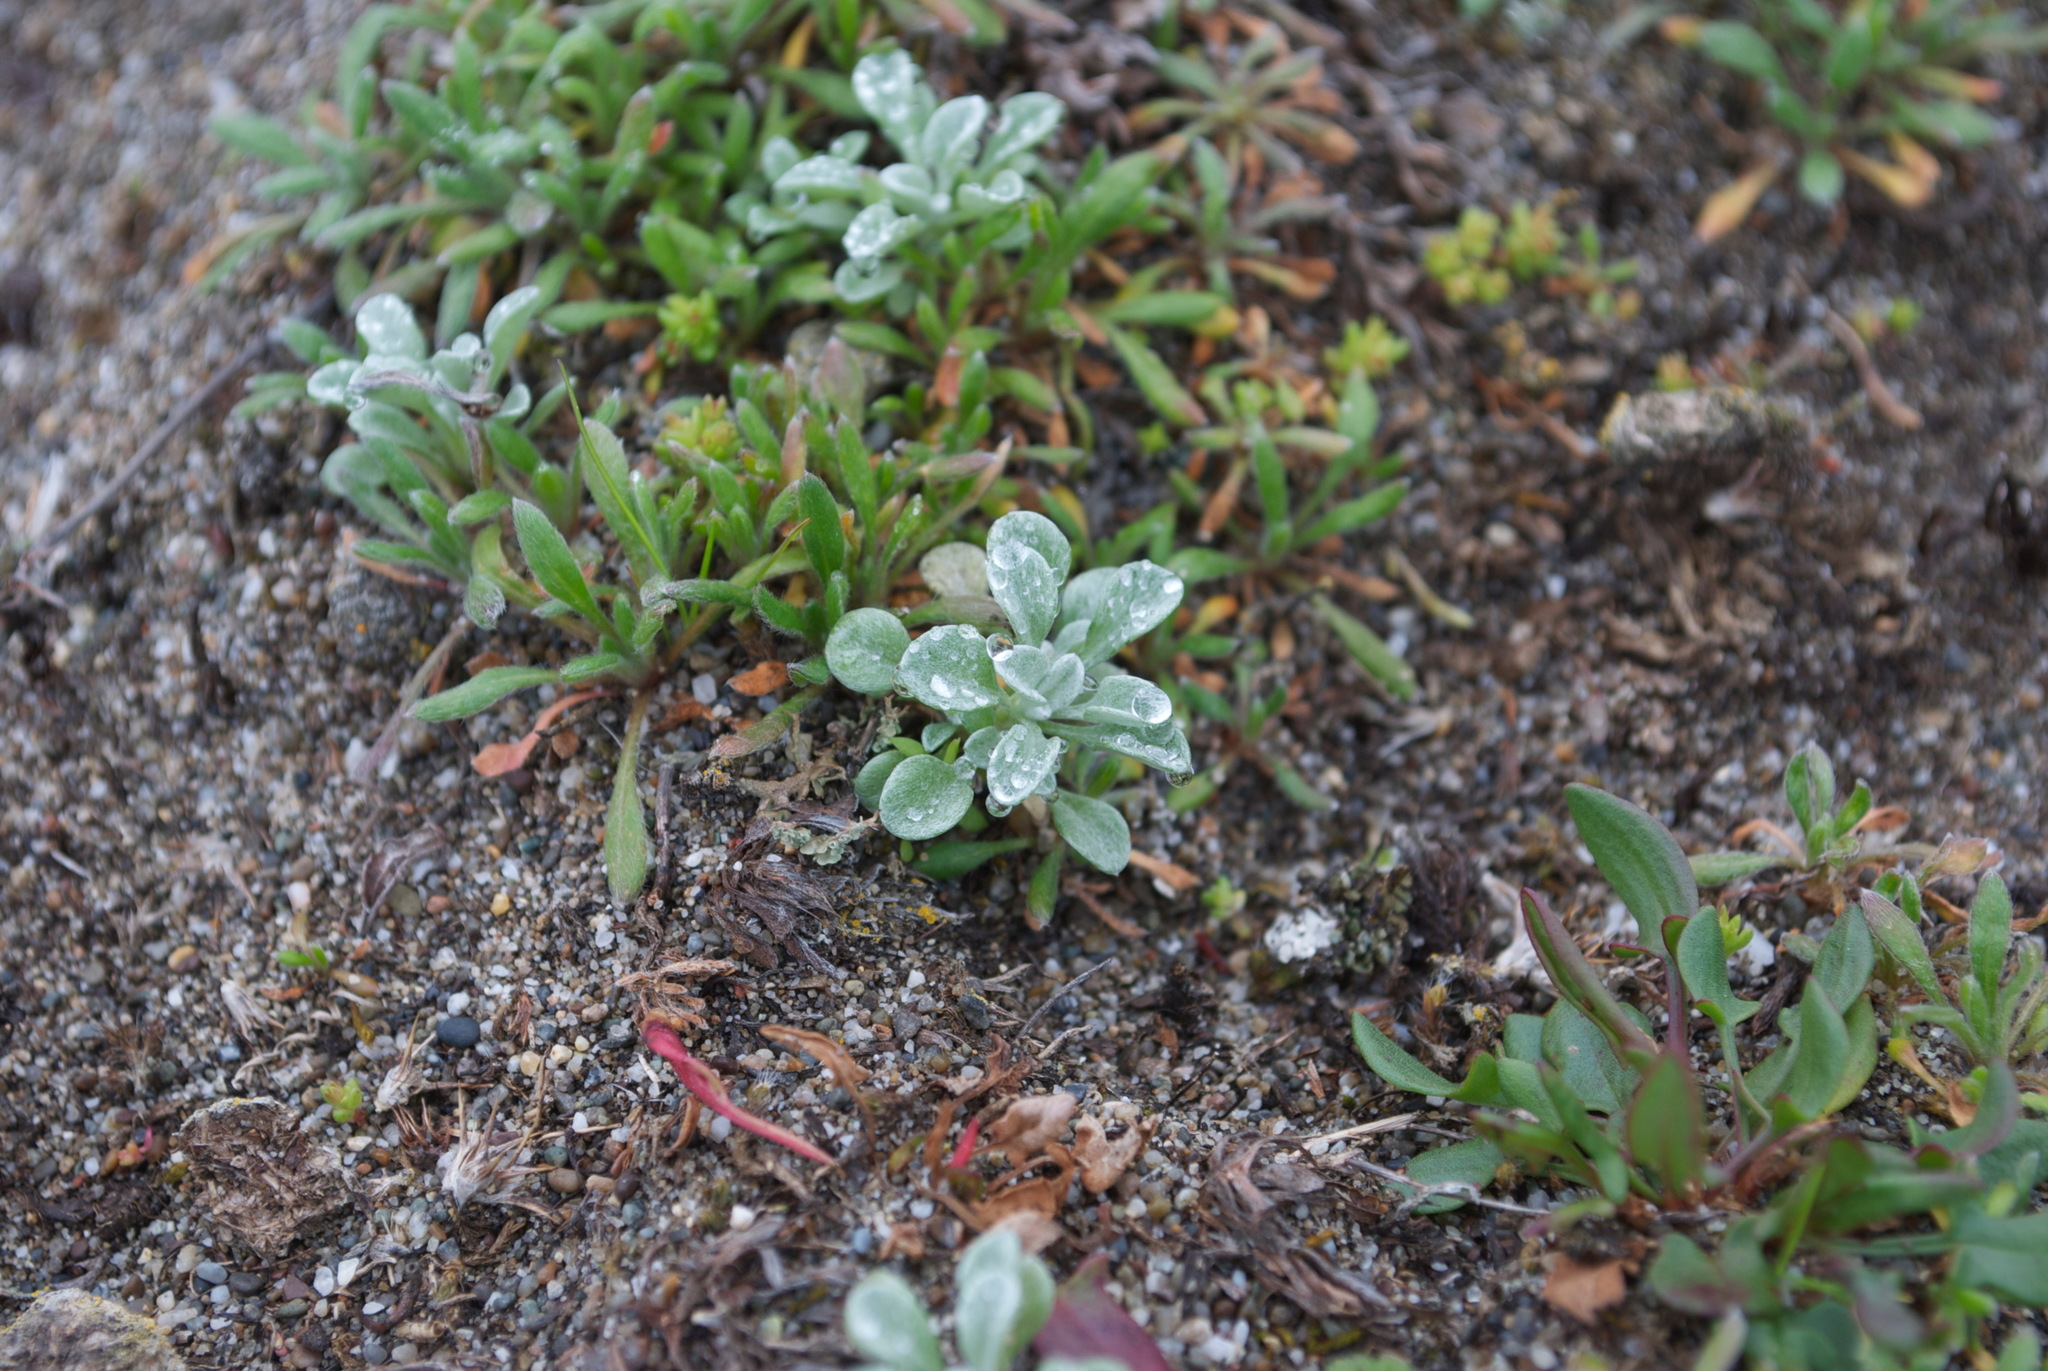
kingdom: Plantae
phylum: Tracheophyta
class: Magnoliopsida
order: Asterales
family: Asteraceae
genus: Hesperevax
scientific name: Hesperevax sparsiflora
